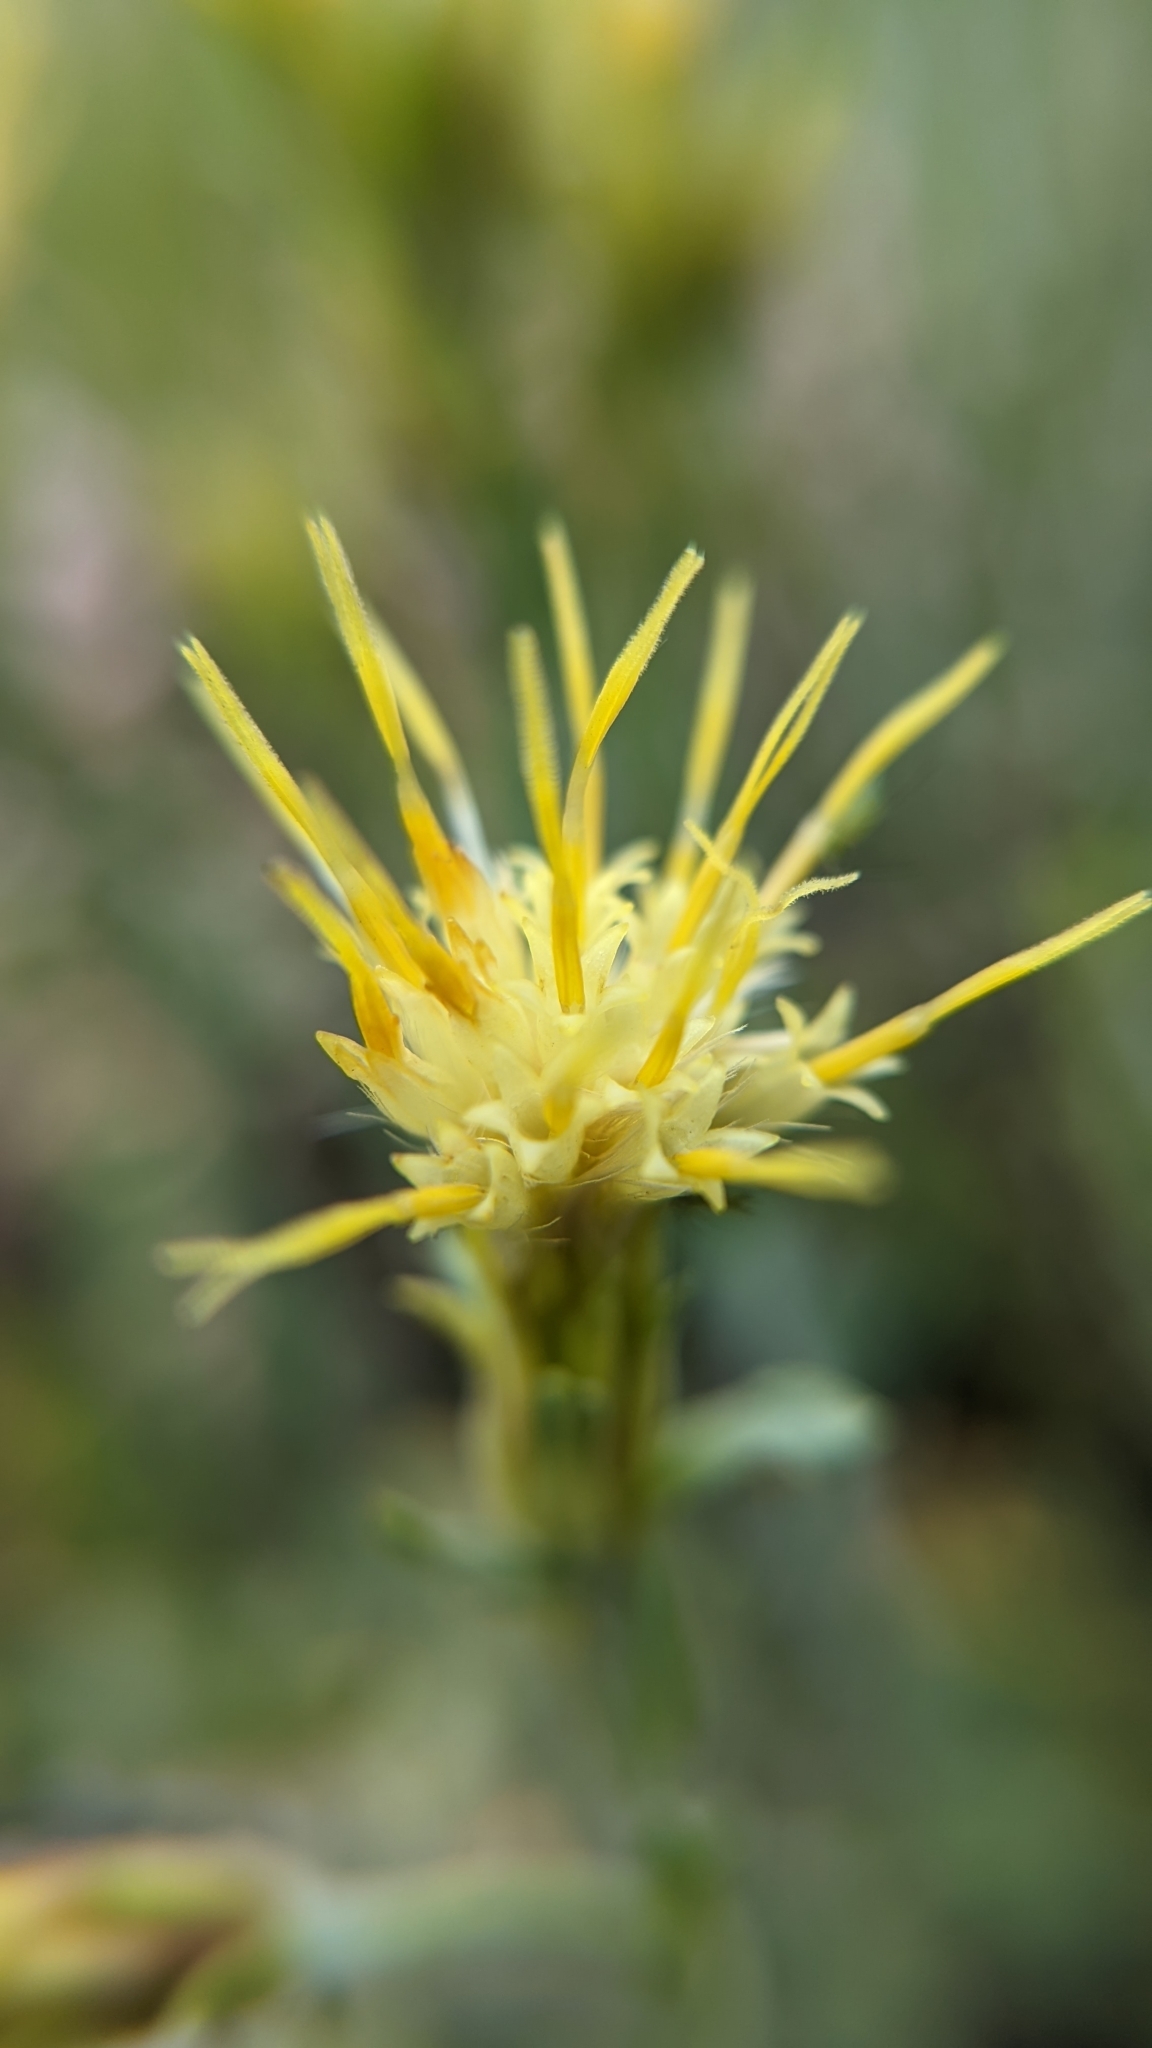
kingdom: Plantae
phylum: Tracheophyta
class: Magnoliopsida
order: Asterales
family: Asteraceae
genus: Ericameria
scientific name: Ericameria discoidea
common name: Sharp-scale goldenweed
